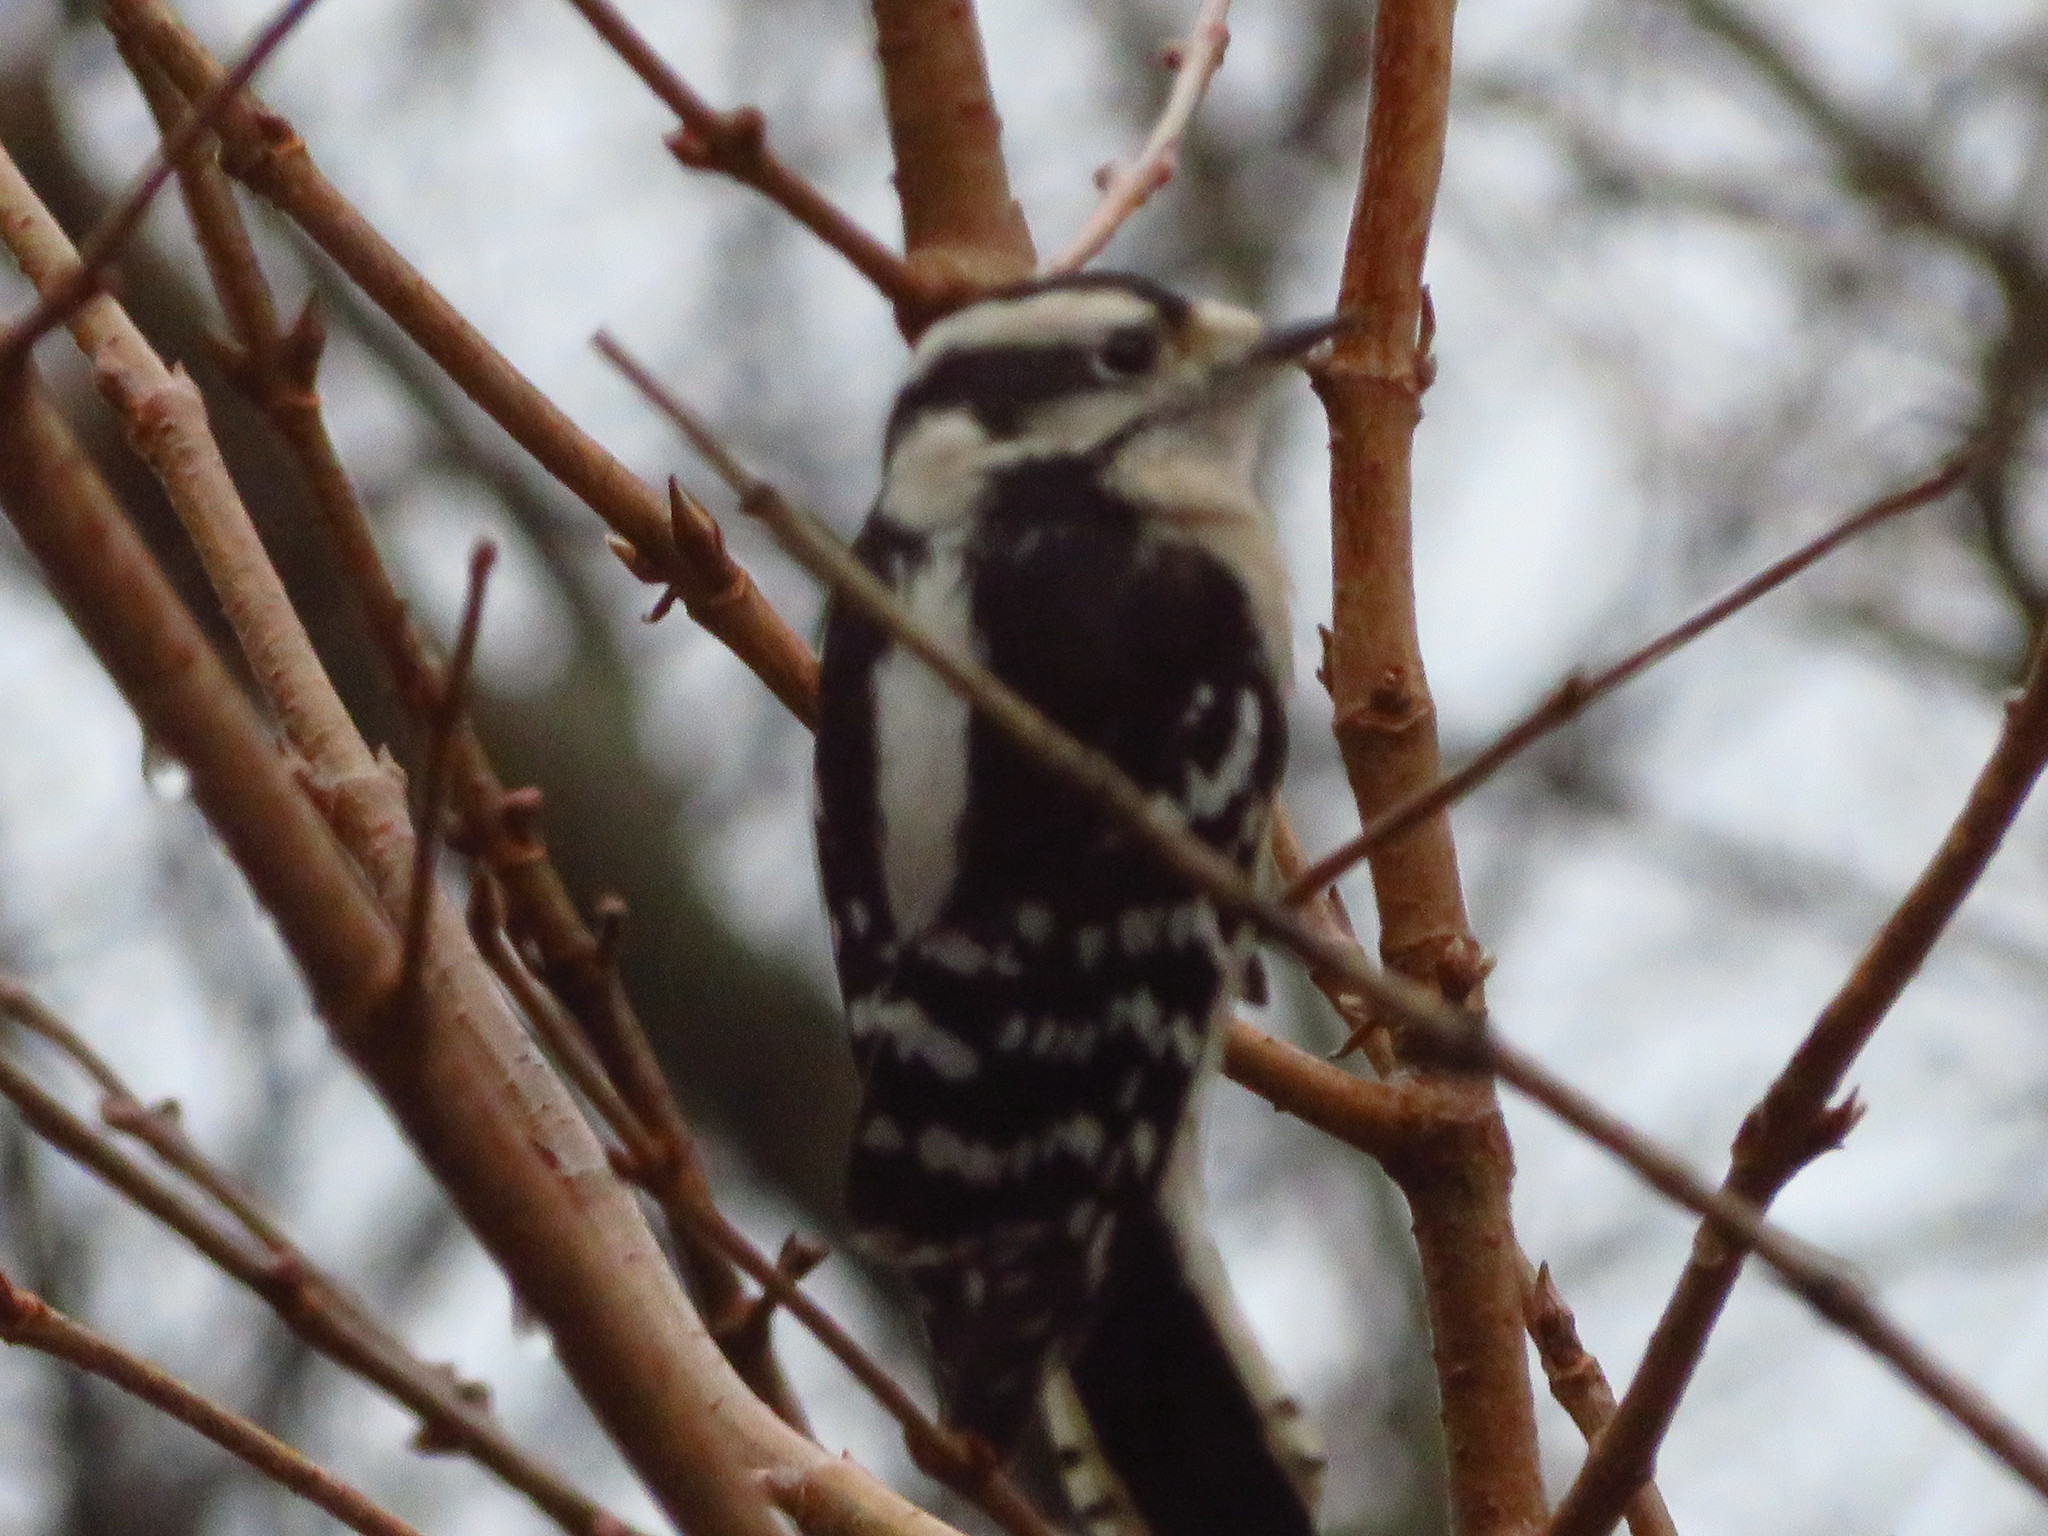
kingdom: Animalia
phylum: Chordata
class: Aves
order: Piciformes
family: Picidae
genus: Dryobates
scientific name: Dryobates pubescens
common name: Downy woodpecker
